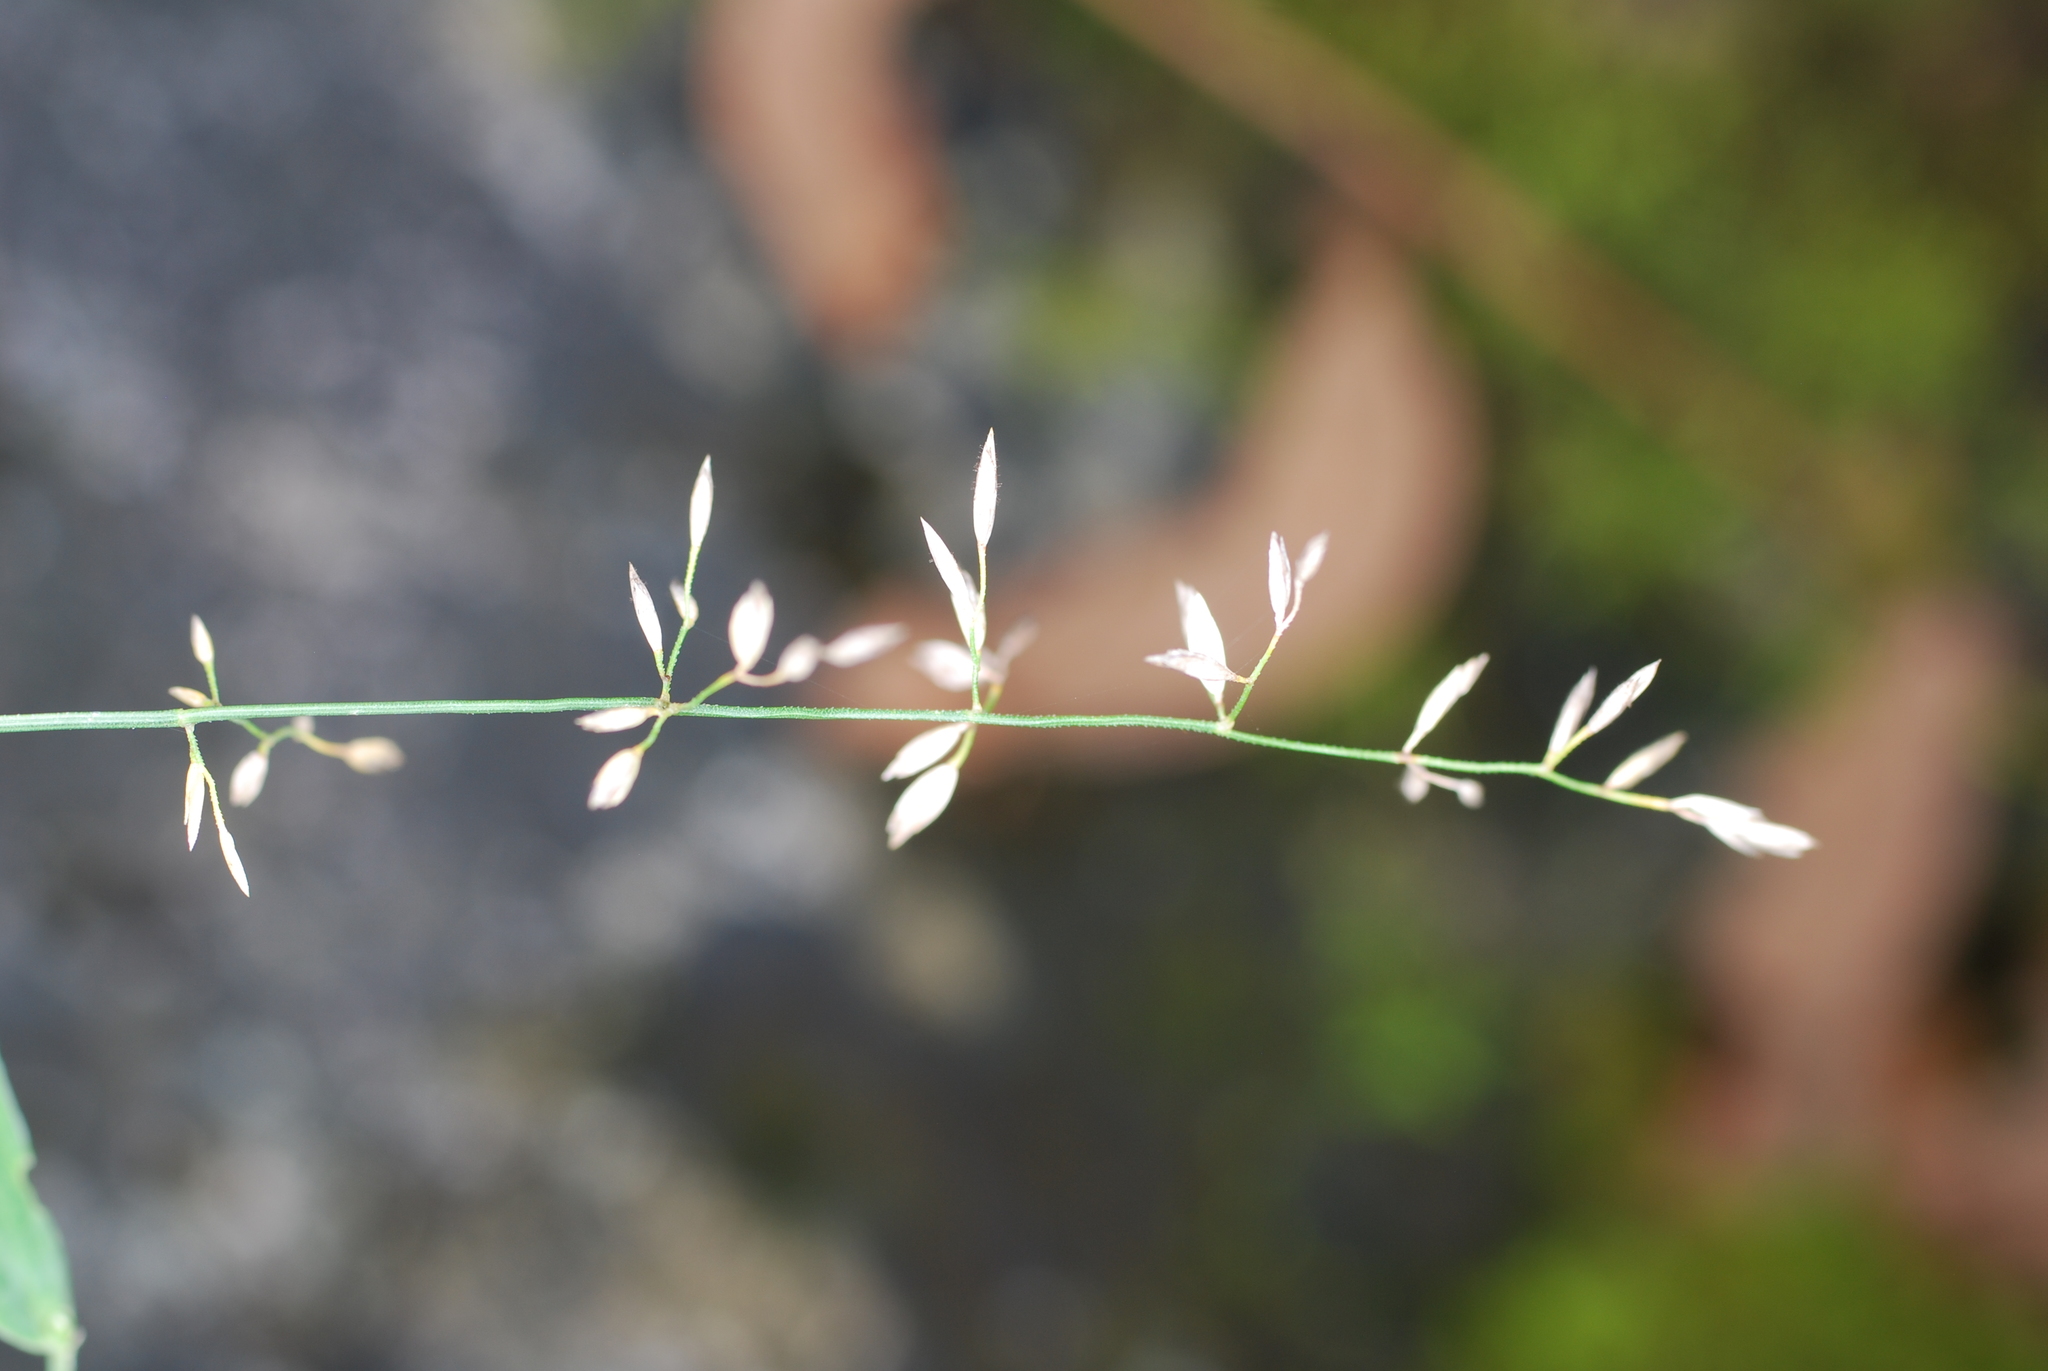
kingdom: Plantae
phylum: Tracheophyta
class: Liliopsida
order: Poales
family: Poaceae
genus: Poa
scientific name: Poa compressa
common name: Canada bluegrass
